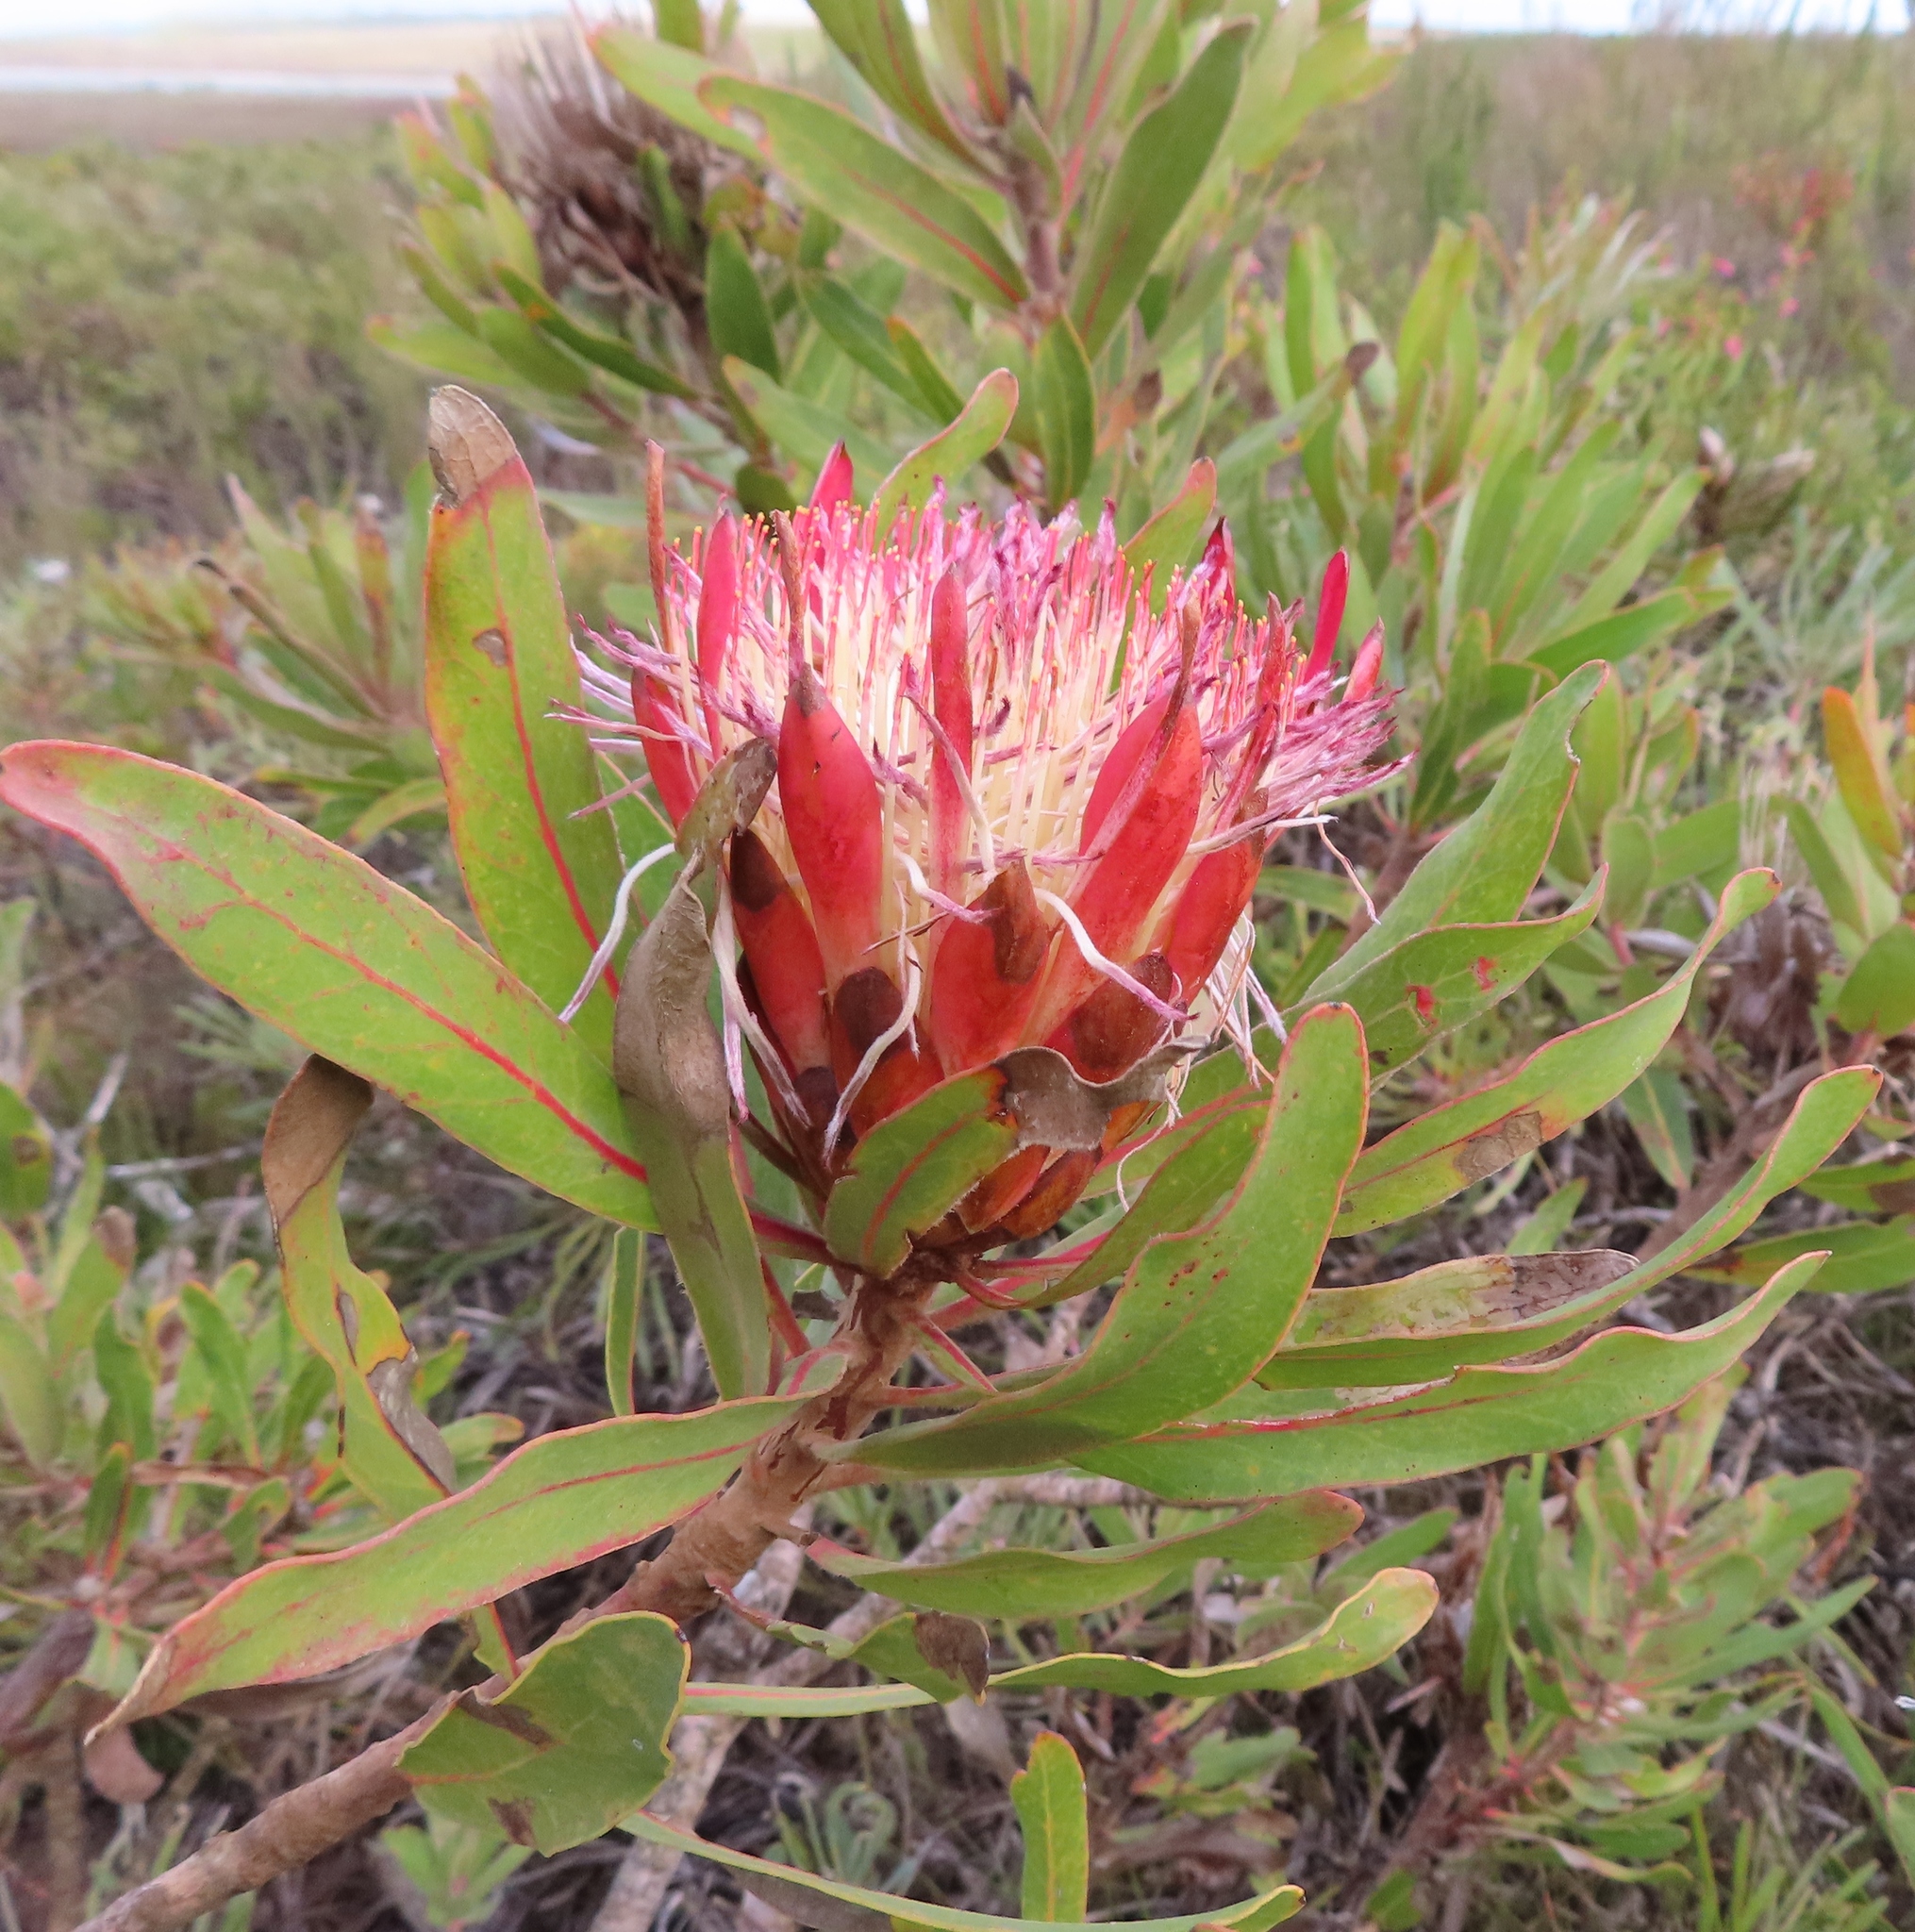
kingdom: Plantae
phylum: Tracheophyta
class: Magnoliopsida
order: Proteales
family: Proteaceae
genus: Protea
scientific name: Protea susannae
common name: Foetid-leaf sugarbush
